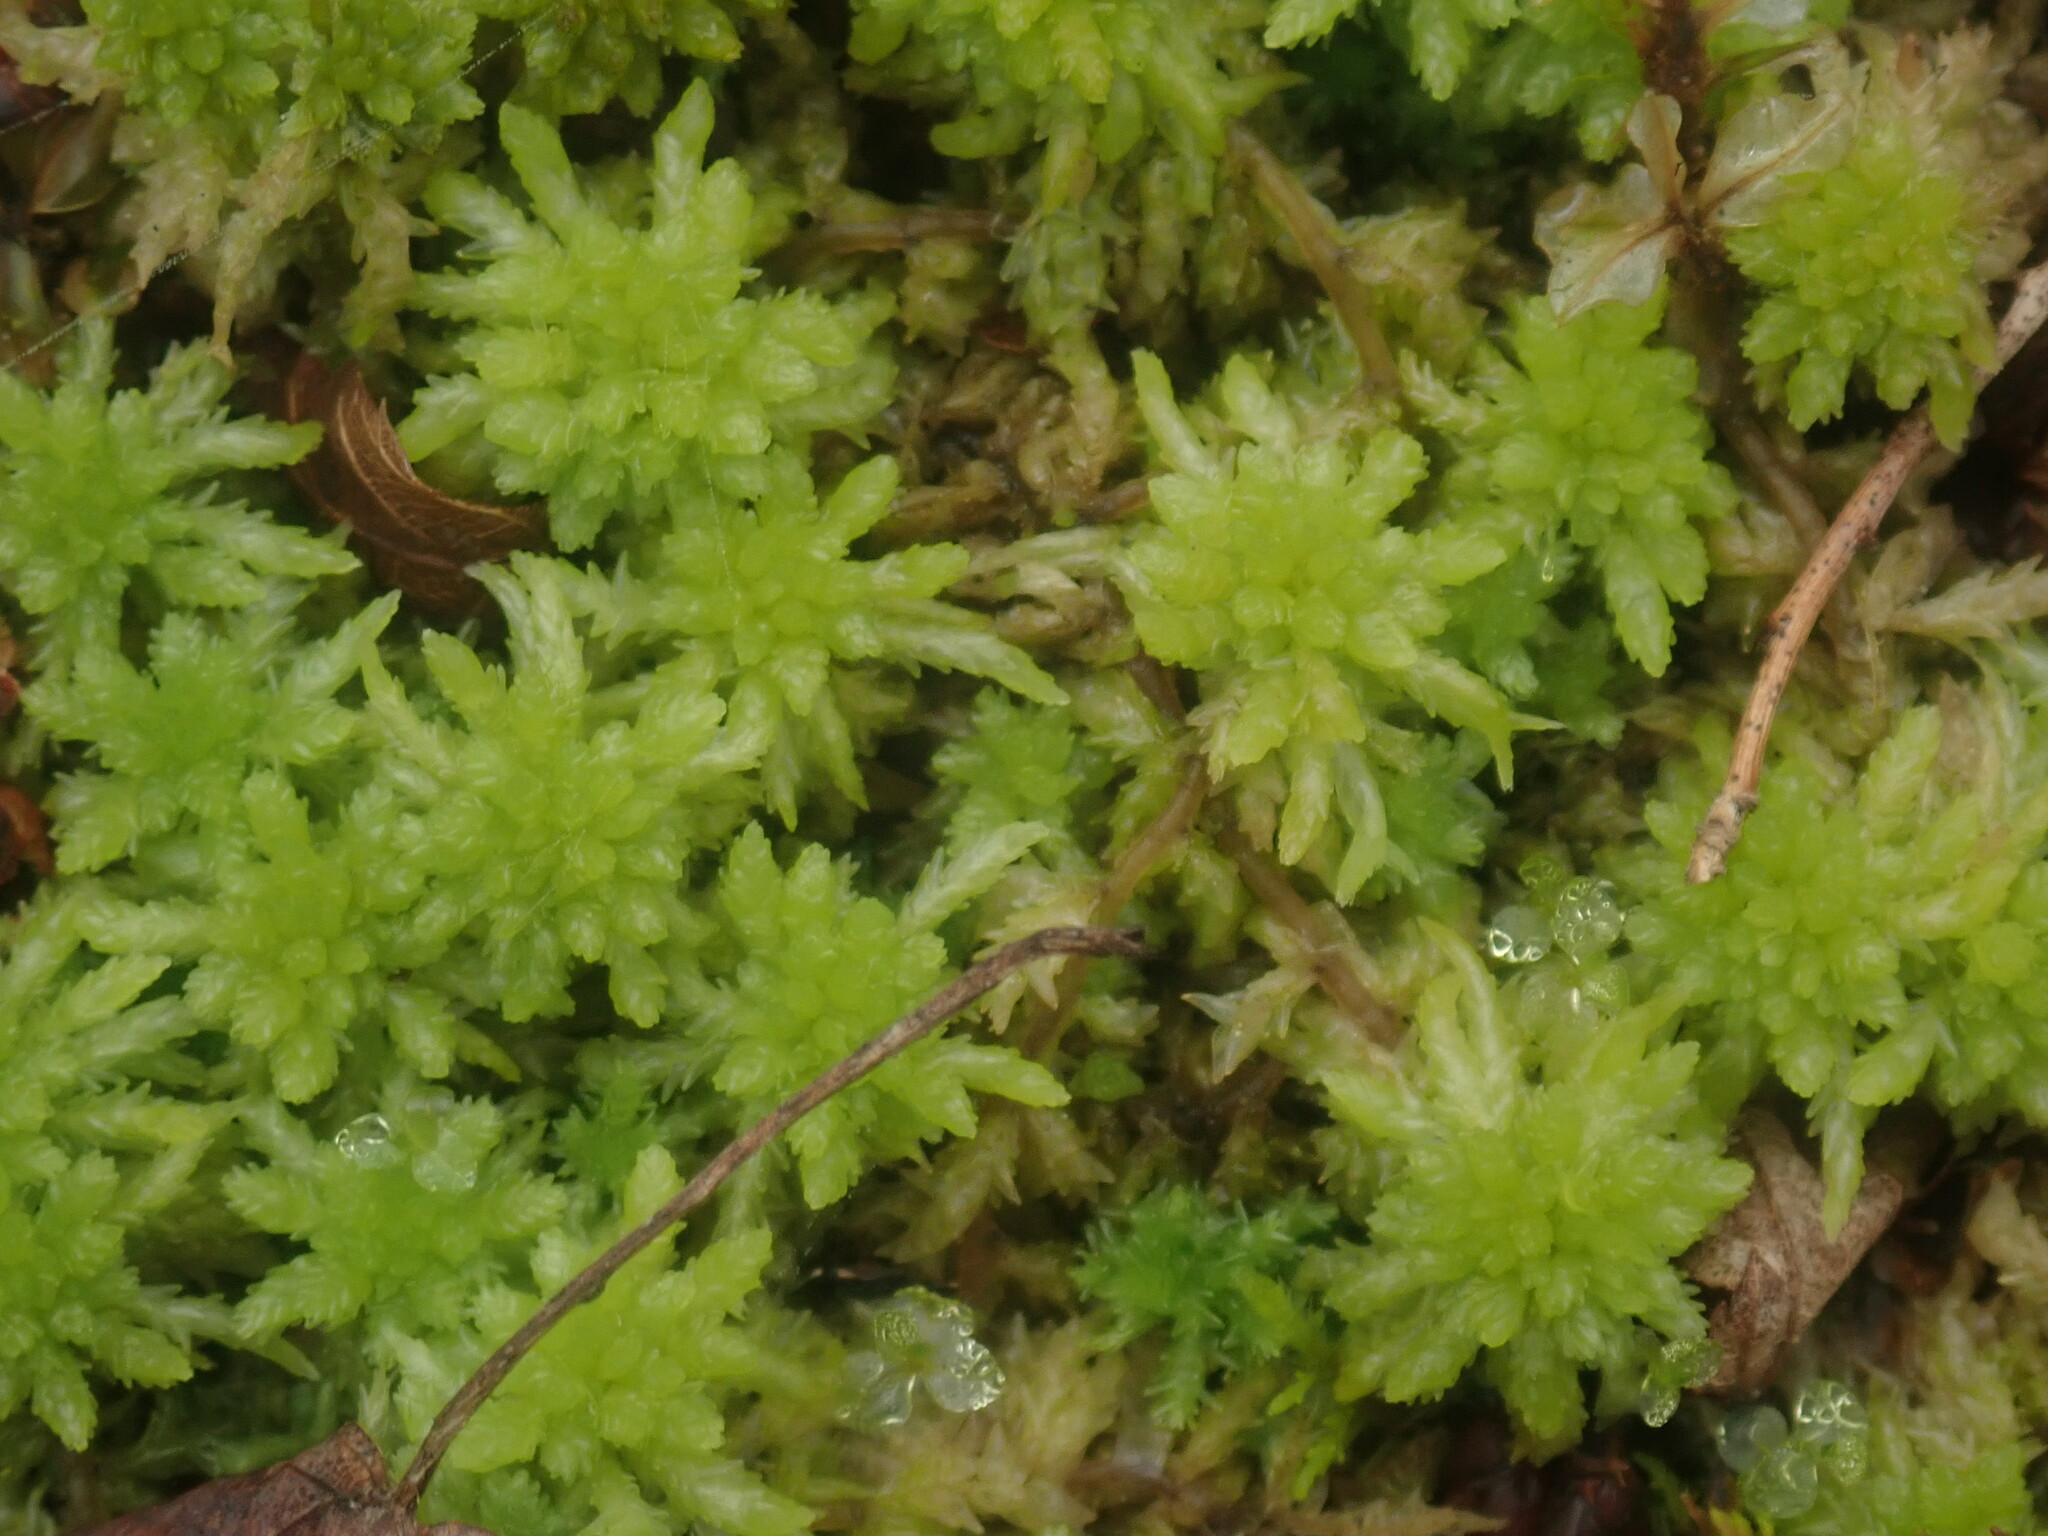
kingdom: Plantae
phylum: Bryophyta
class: Sphagnopsida
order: Sphagnales
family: Sphagnaceae
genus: Sphagnum
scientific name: Sphagnum
